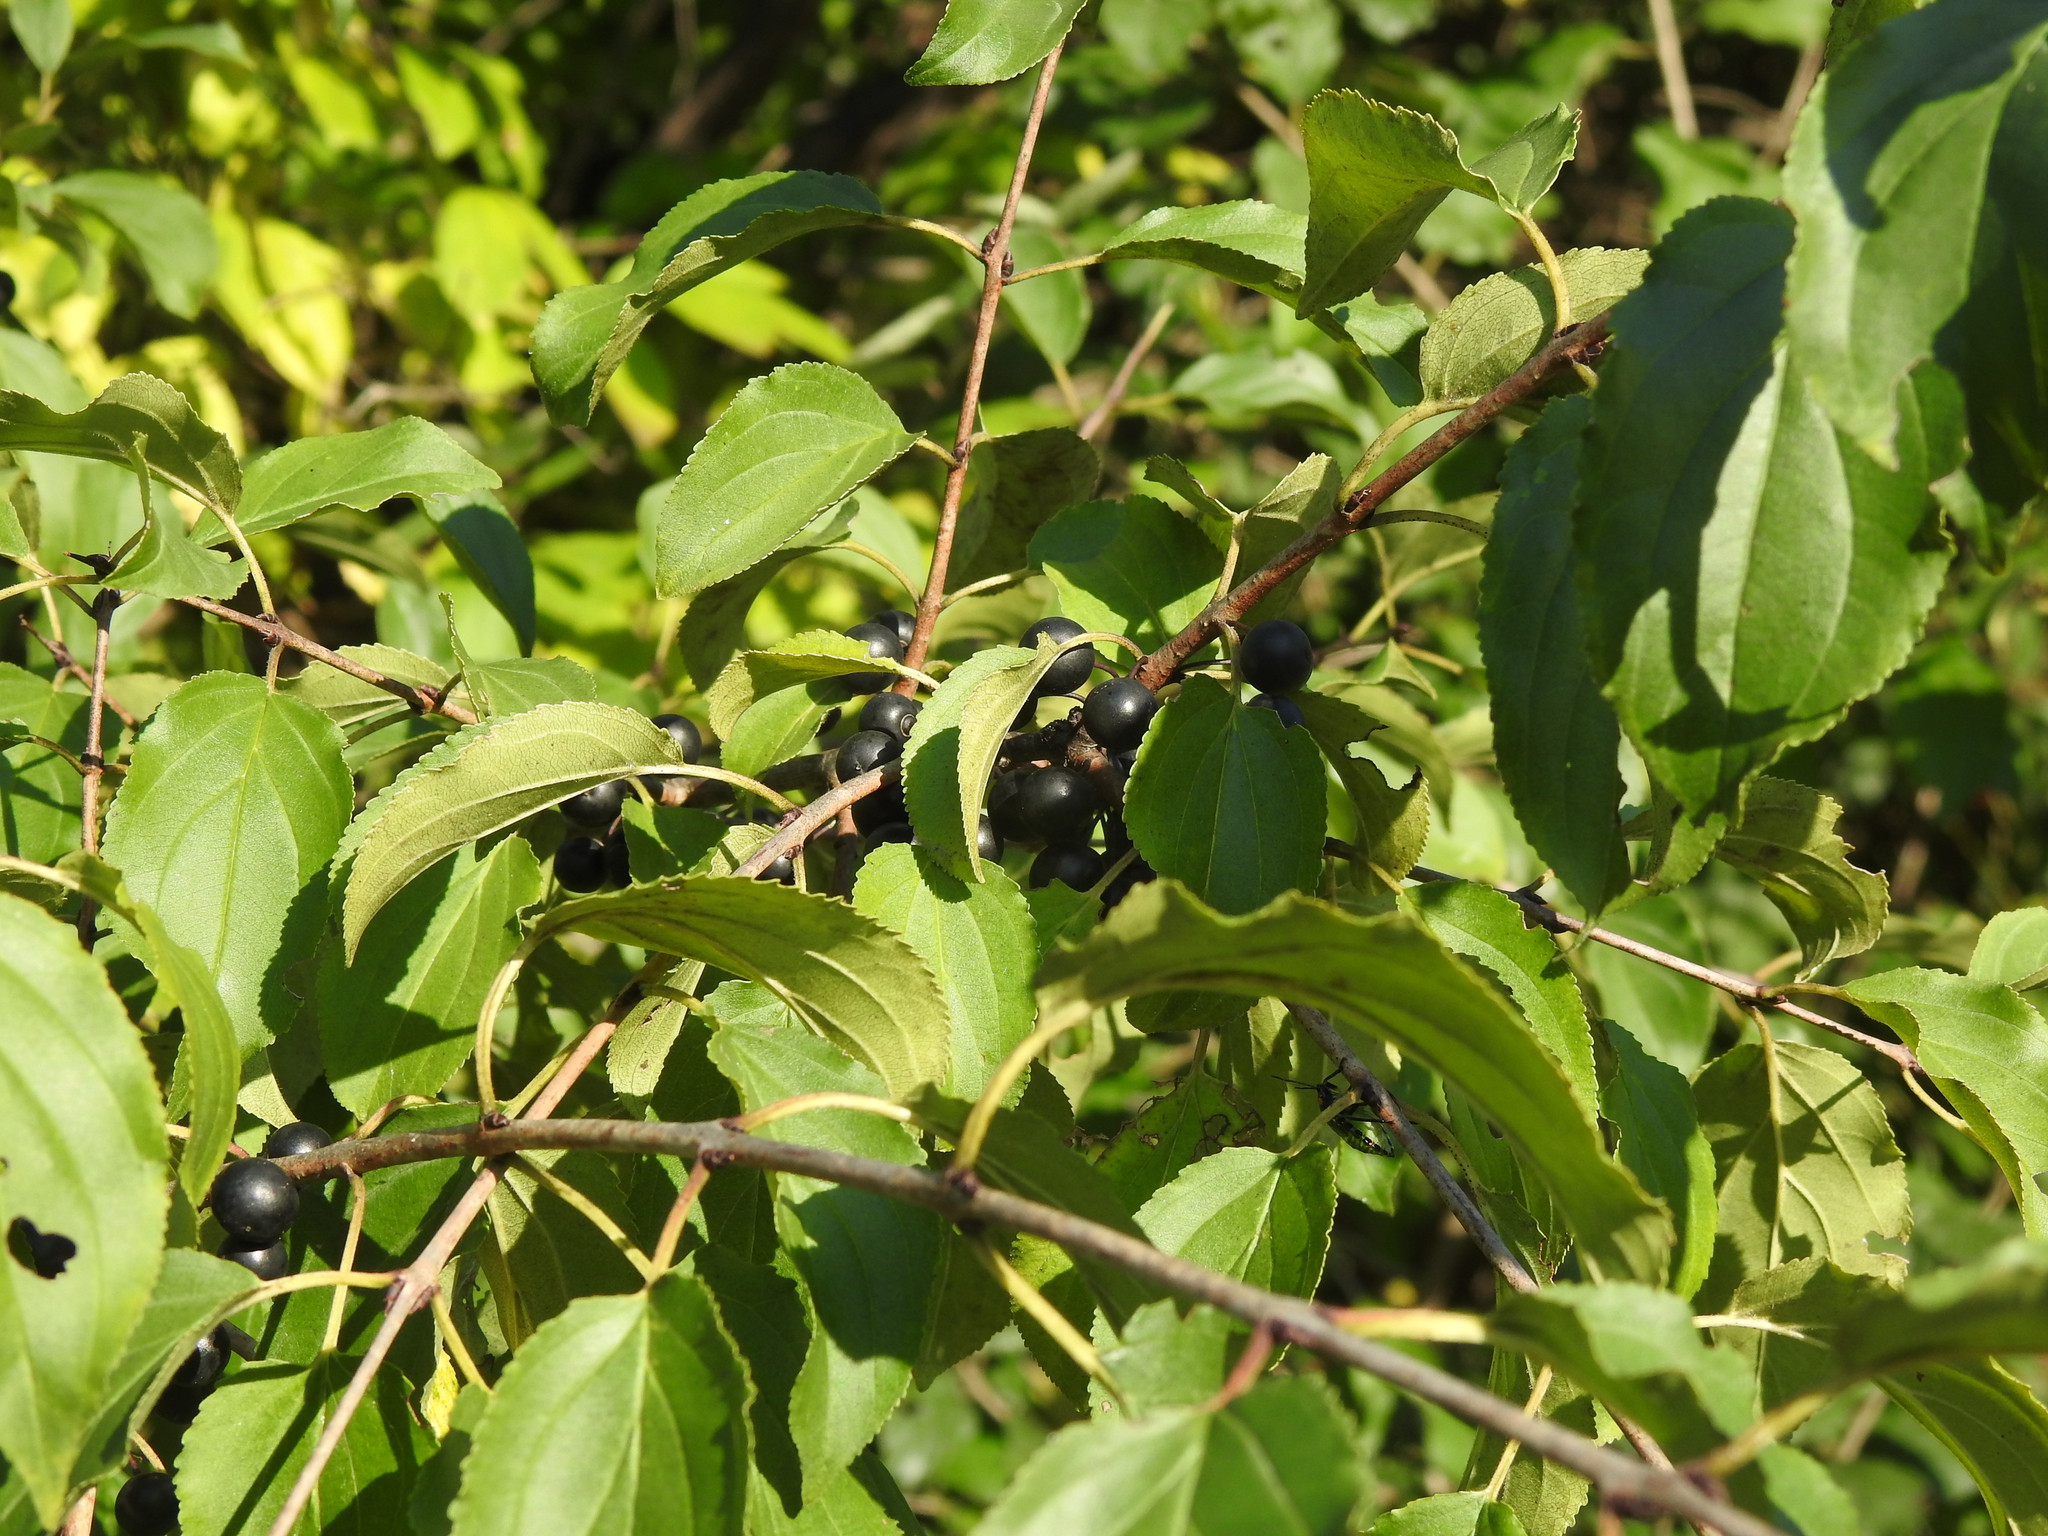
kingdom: Plantae
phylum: Tracheophyta
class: Magnoliopsida
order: Rosales
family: Rhamnaceae
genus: Rhamnus
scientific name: Rhamnus cathartica
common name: Common buckthorn
